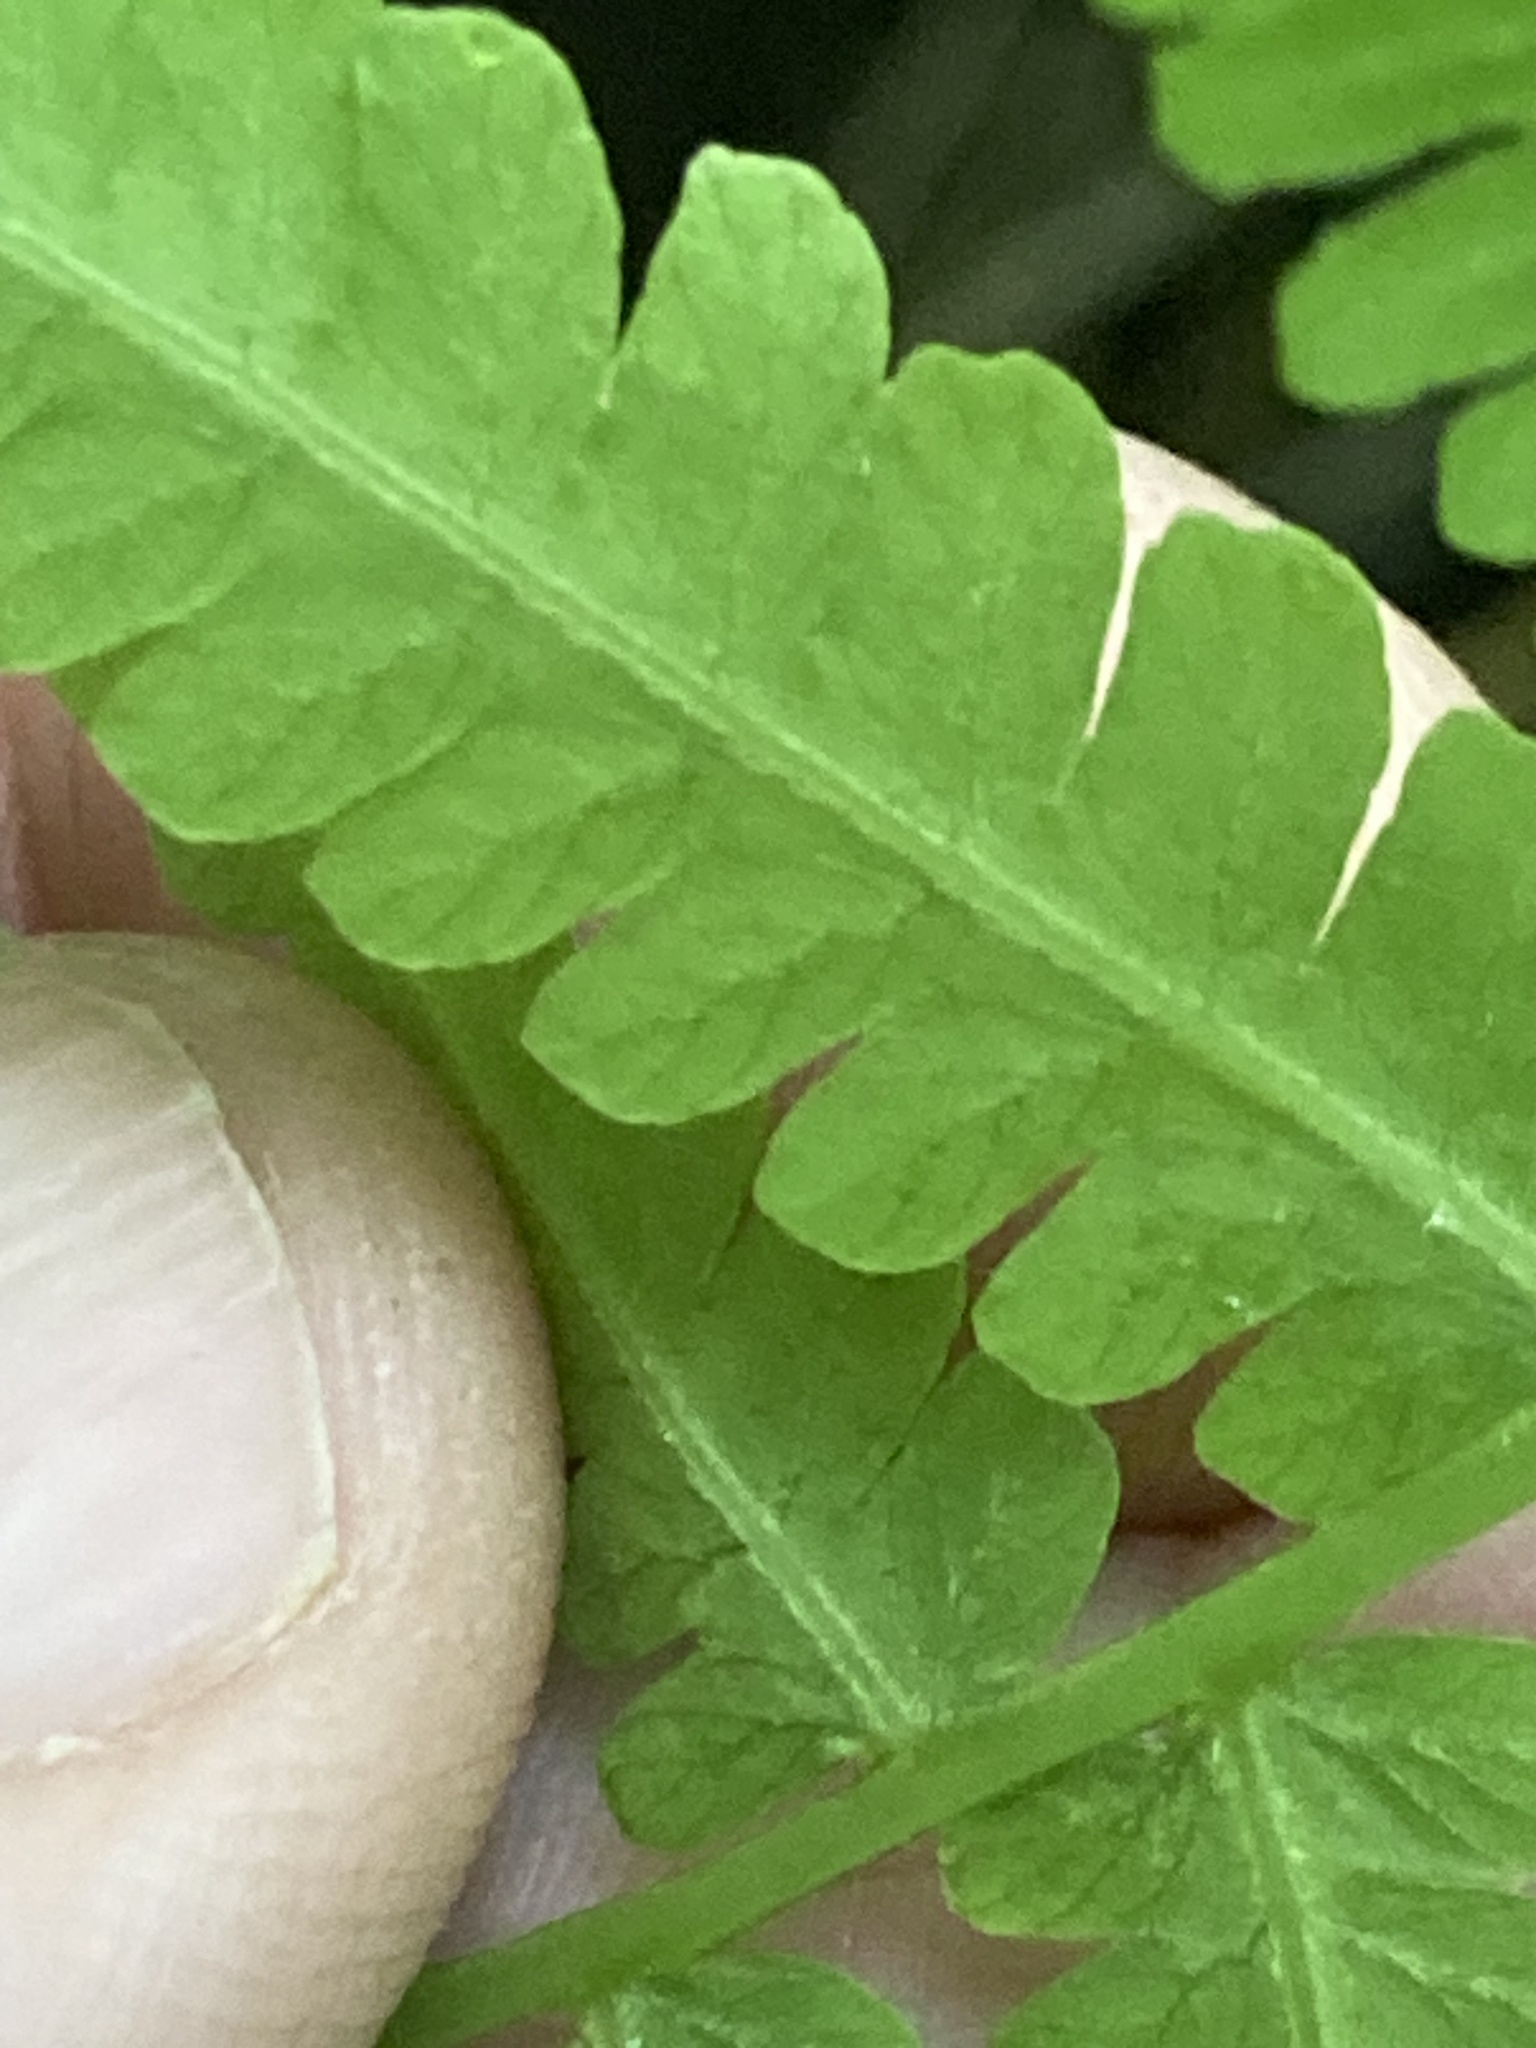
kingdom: Plantae
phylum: Tracheophyta
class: Polypodiopsida
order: Polypodiales
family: Athyriaceae
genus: Deparia
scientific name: Deparia acrostichoides
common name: Silver false spleenwort
